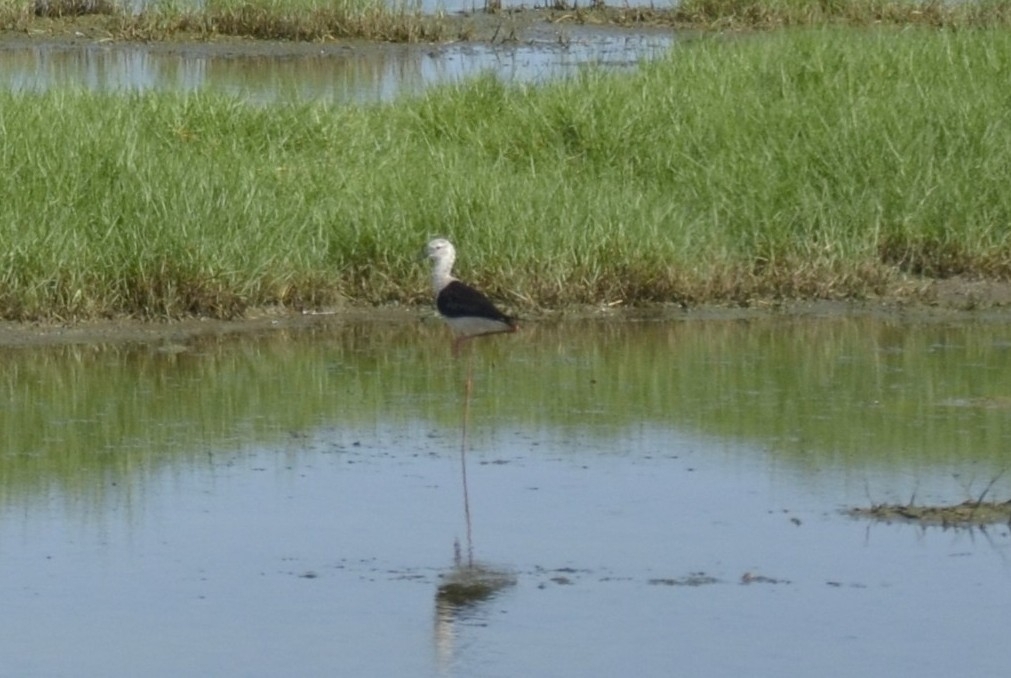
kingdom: Animalia
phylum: Chordata
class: Aves
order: Charadriiformes
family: Recurvirostridae
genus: Himantopus
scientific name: Himantopus himantopus
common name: Black-winged stilt
